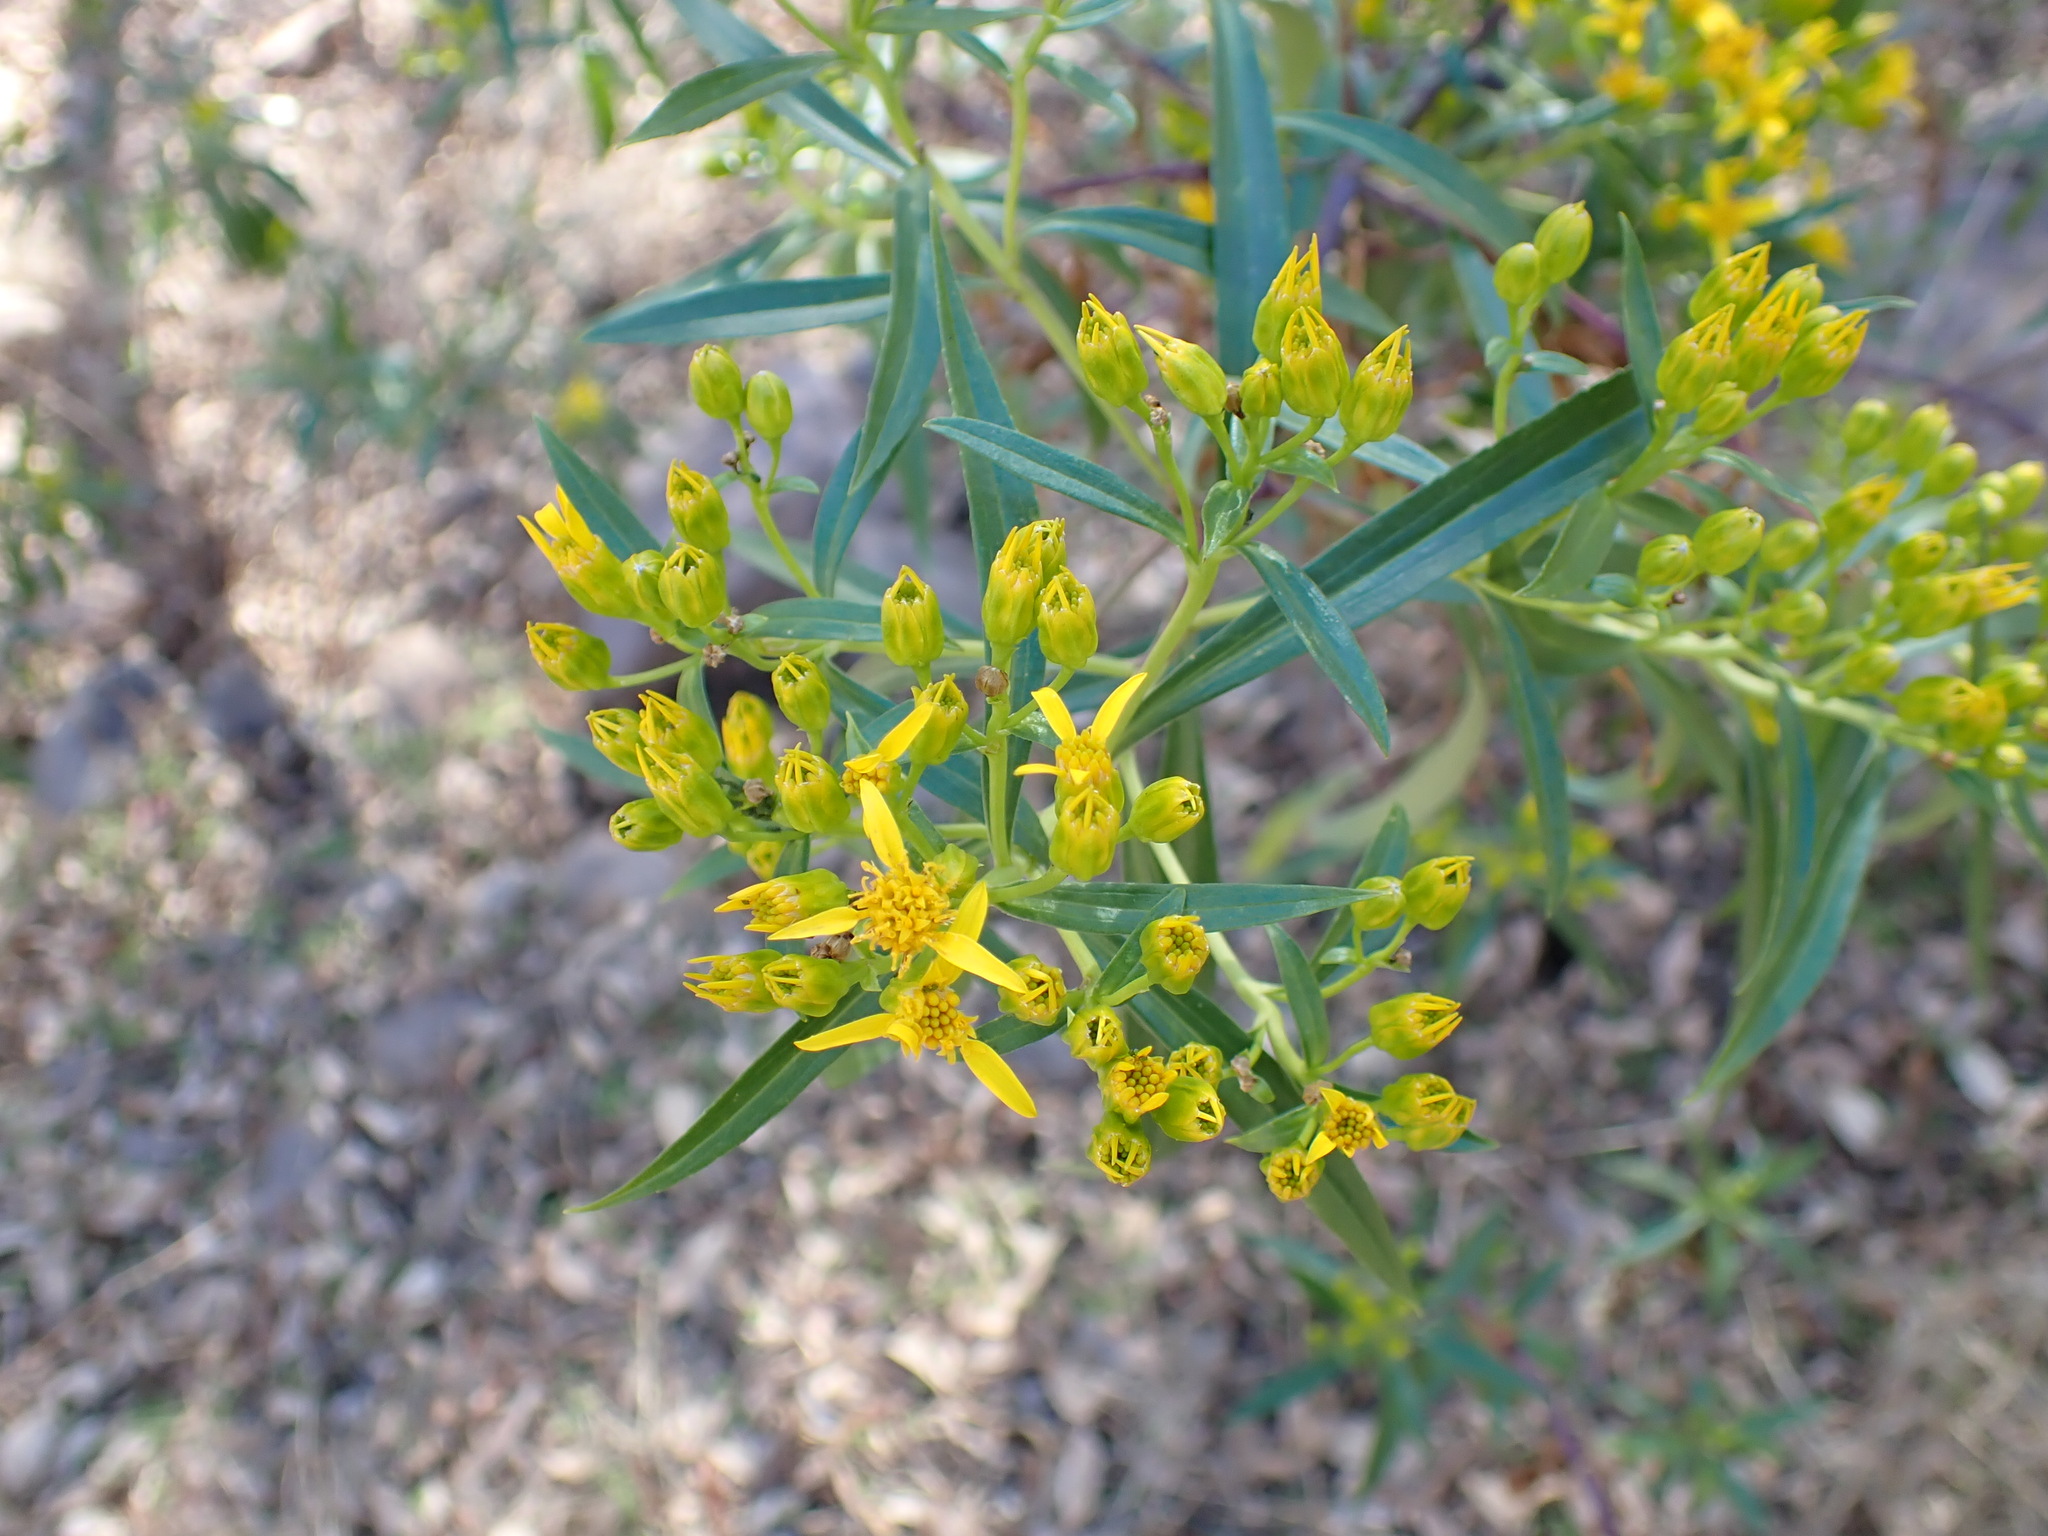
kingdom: Plantae
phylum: Tracheophyta
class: Magnoliopsida
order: Asterales
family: Asteraceae
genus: Barkleyanthus
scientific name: Barkleyanthus salicifolius
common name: Willow ragwort
